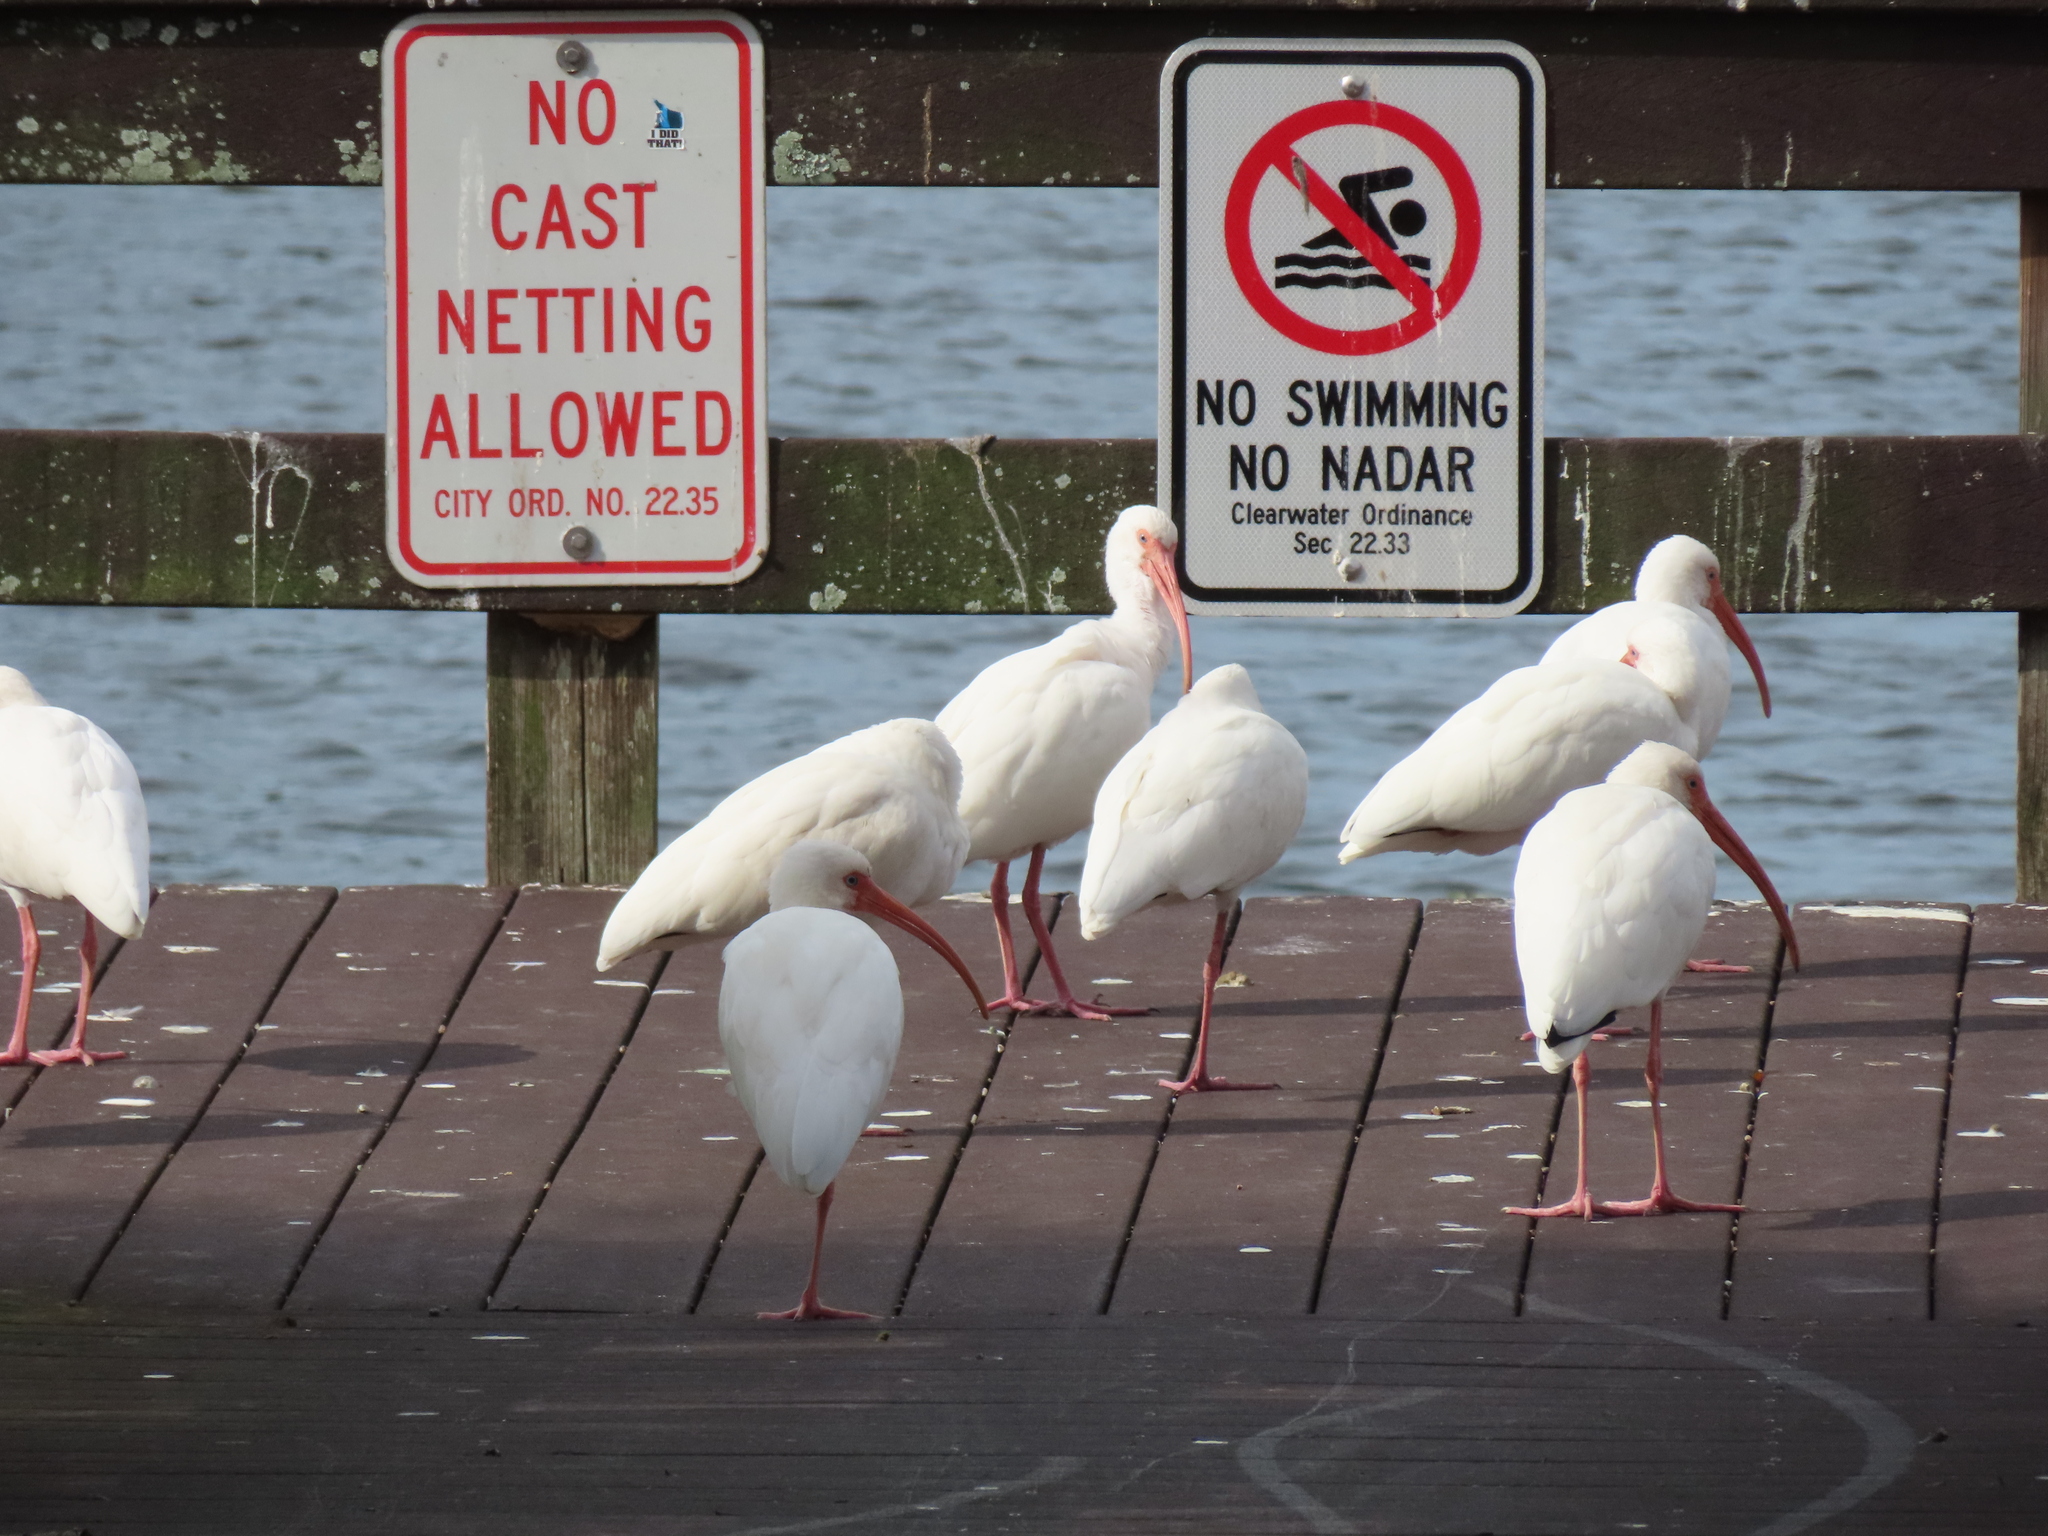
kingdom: Animalia
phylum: Chordata
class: Aves
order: Pelecaniformes
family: Threskiornithidae
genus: Eudocimus
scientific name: Eudocimus albus
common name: White ibis
